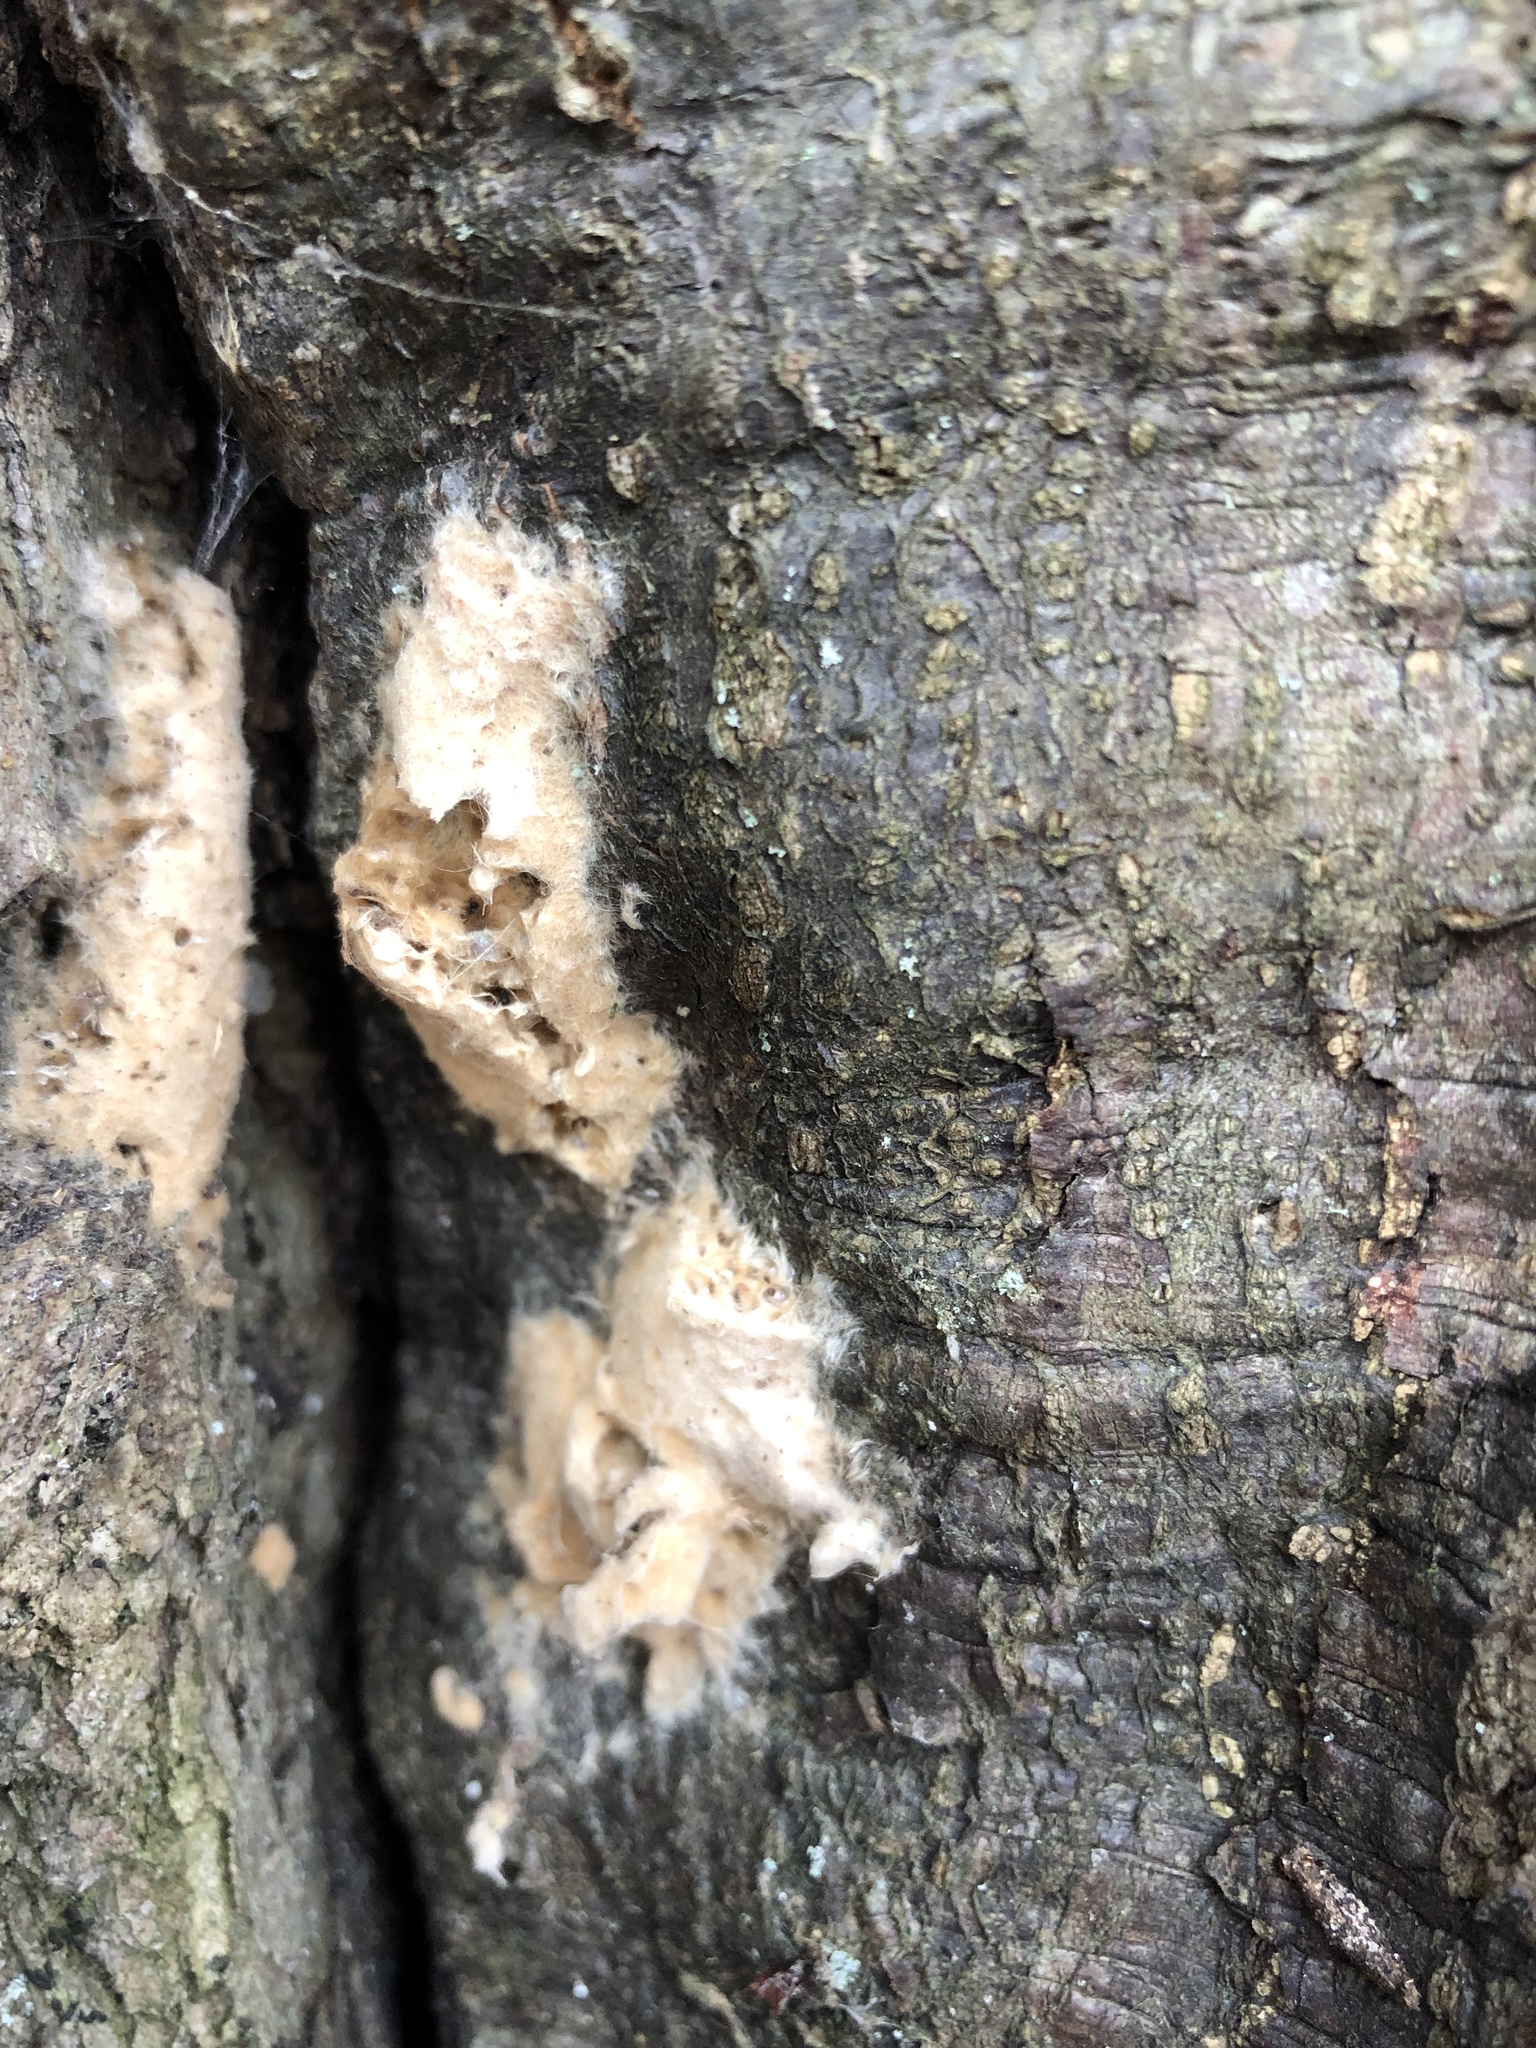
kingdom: Animalia
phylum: Arthropoda
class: Insecta
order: Lepidoptera
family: Erebidae
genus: Lymantria
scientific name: Lymantria dispar
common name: Gypsy moth
